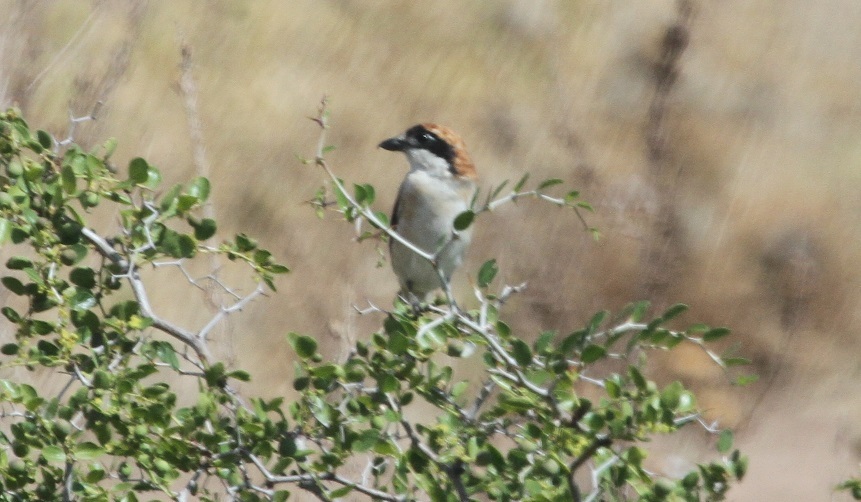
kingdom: Animalia
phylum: Chordata
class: Aves
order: Passeriformes
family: Laniidae
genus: Lanius
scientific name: Lanius senator
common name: Woodchat shrike
